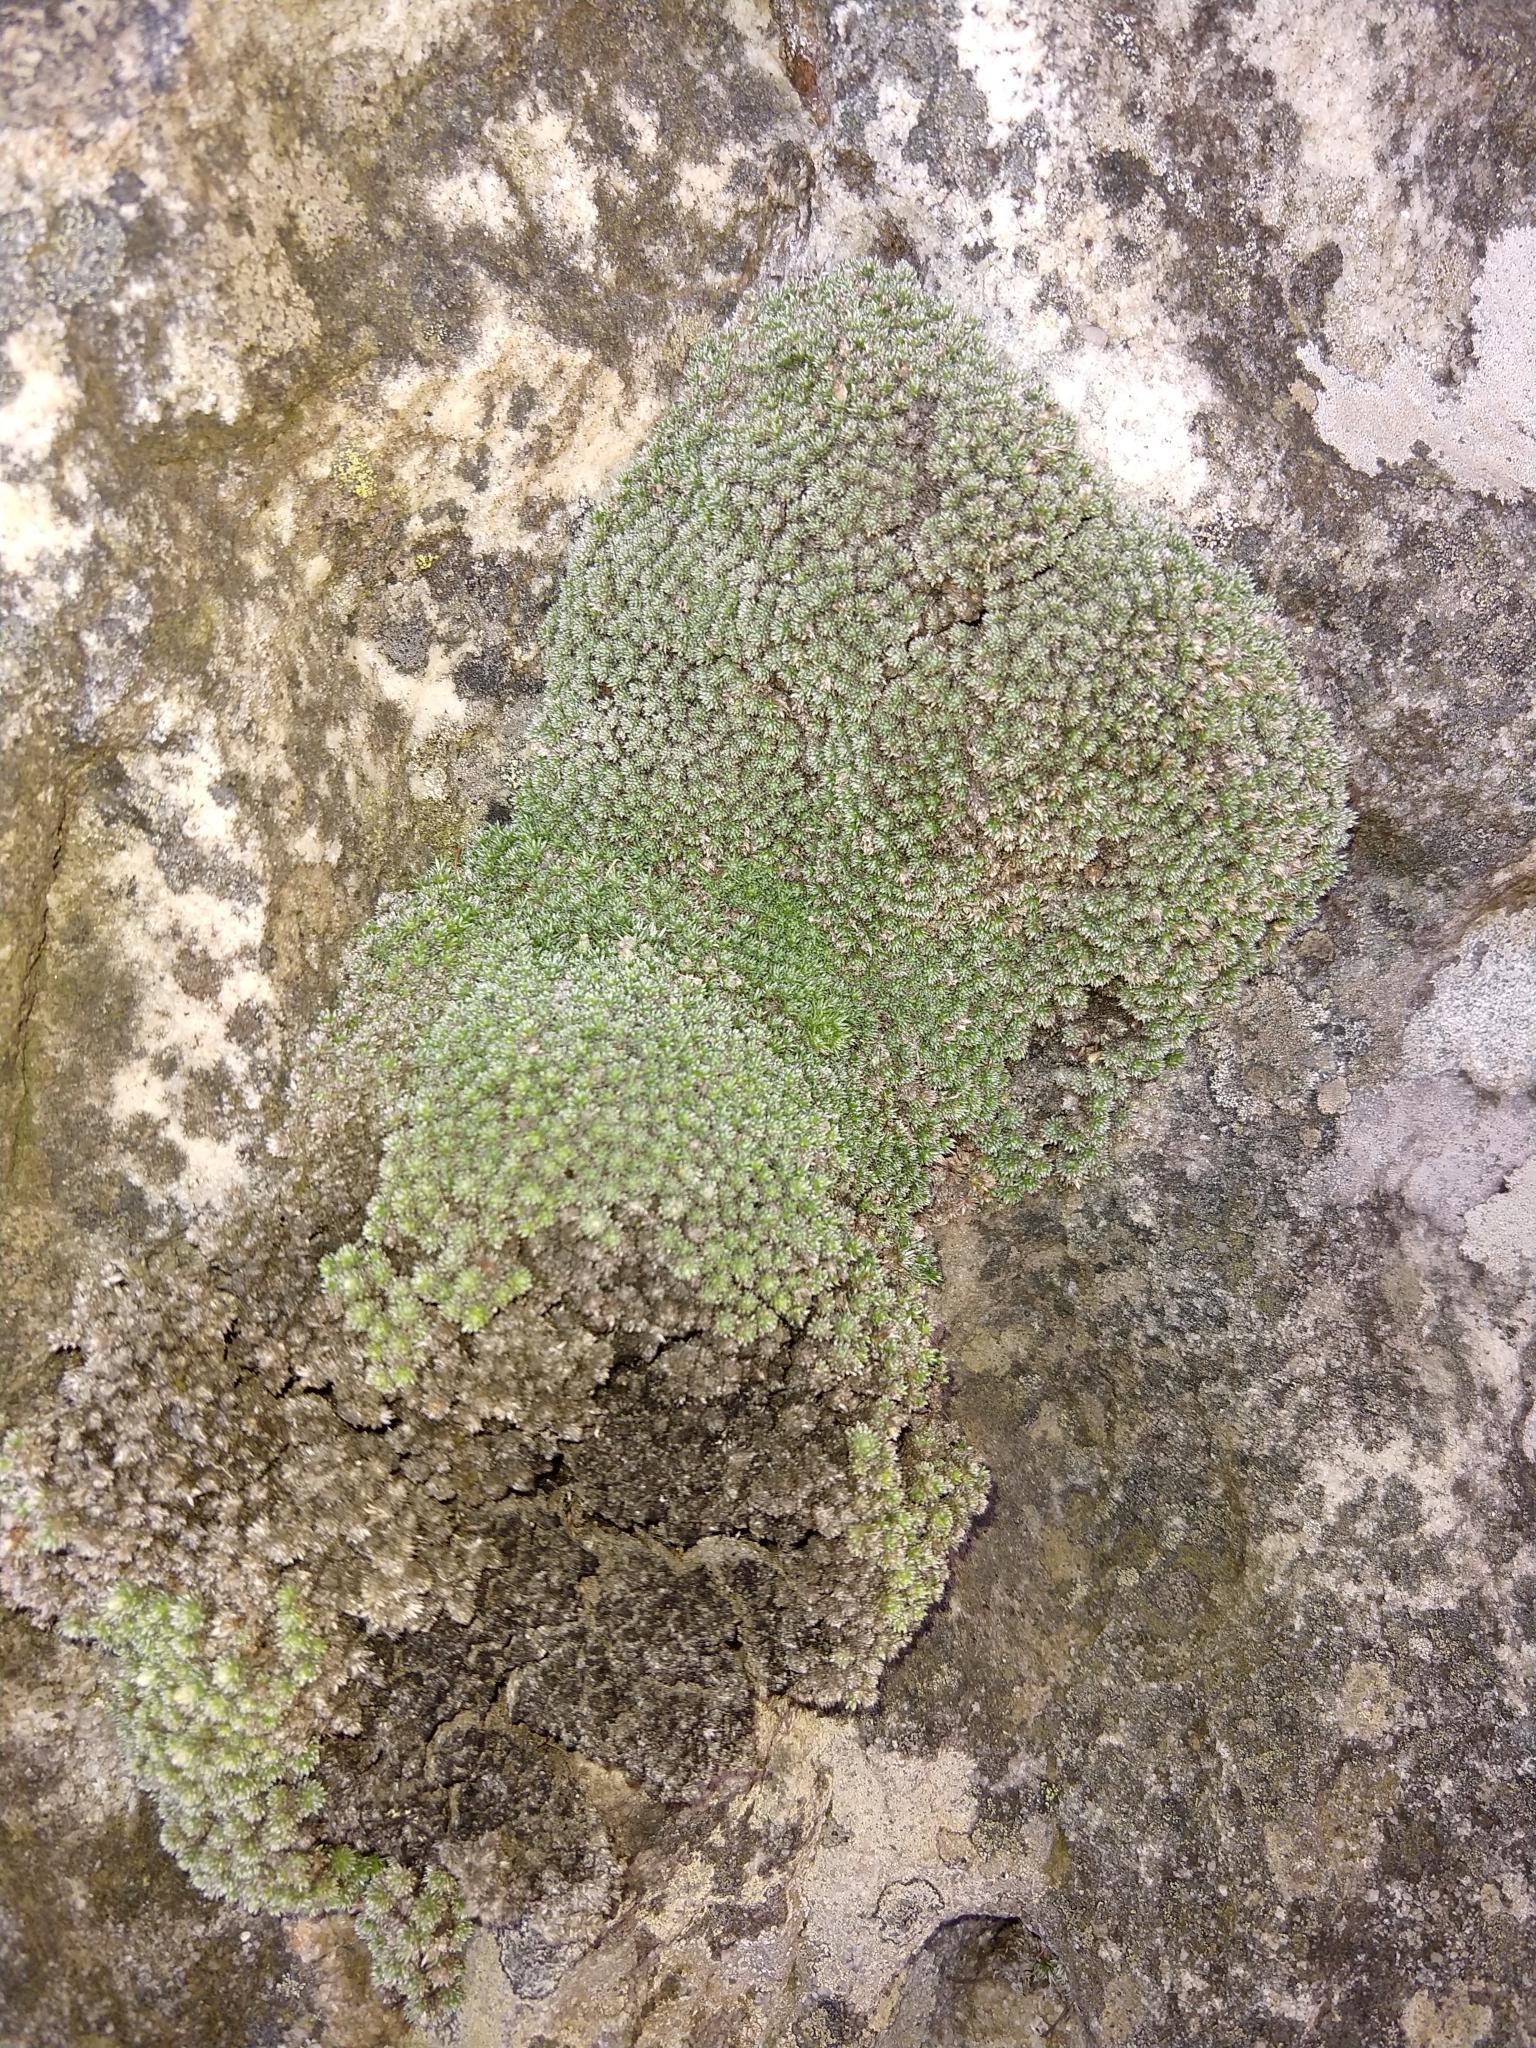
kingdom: Plantae
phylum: Tracheophyta
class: Magnoliopsida
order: Asterales
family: Asteraceae
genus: Muscosomorphe
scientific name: Muscosomorphe aretioides
